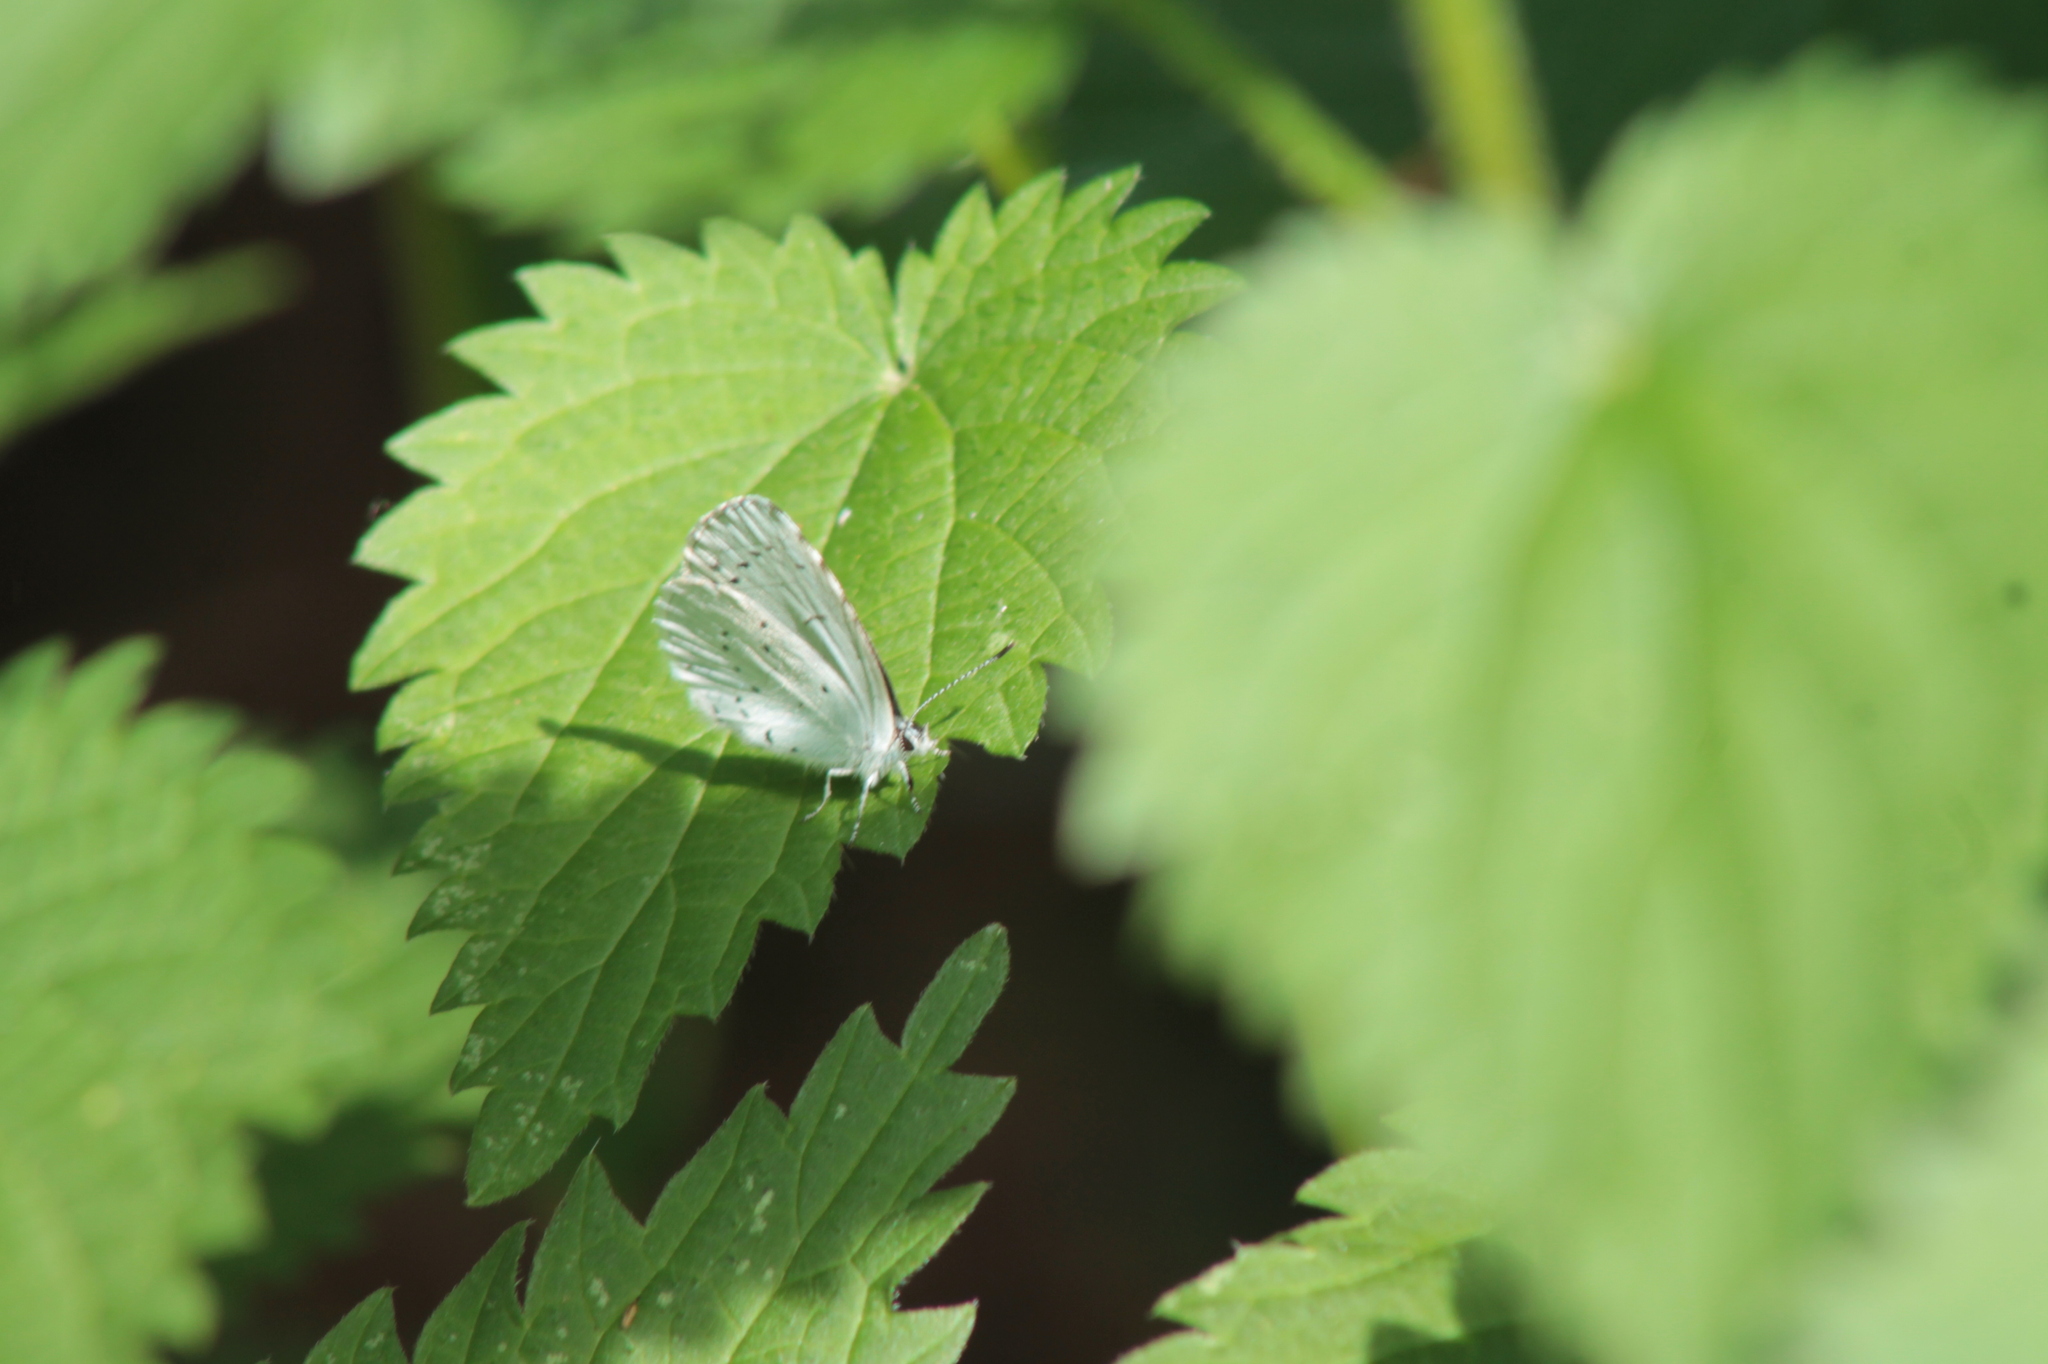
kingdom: Animalia
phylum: Arthropoda
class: Insecta
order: Lepidoptera
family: Lycaenidae
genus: Celastrina
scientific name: Celastrina argiolus
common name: Holly blue
